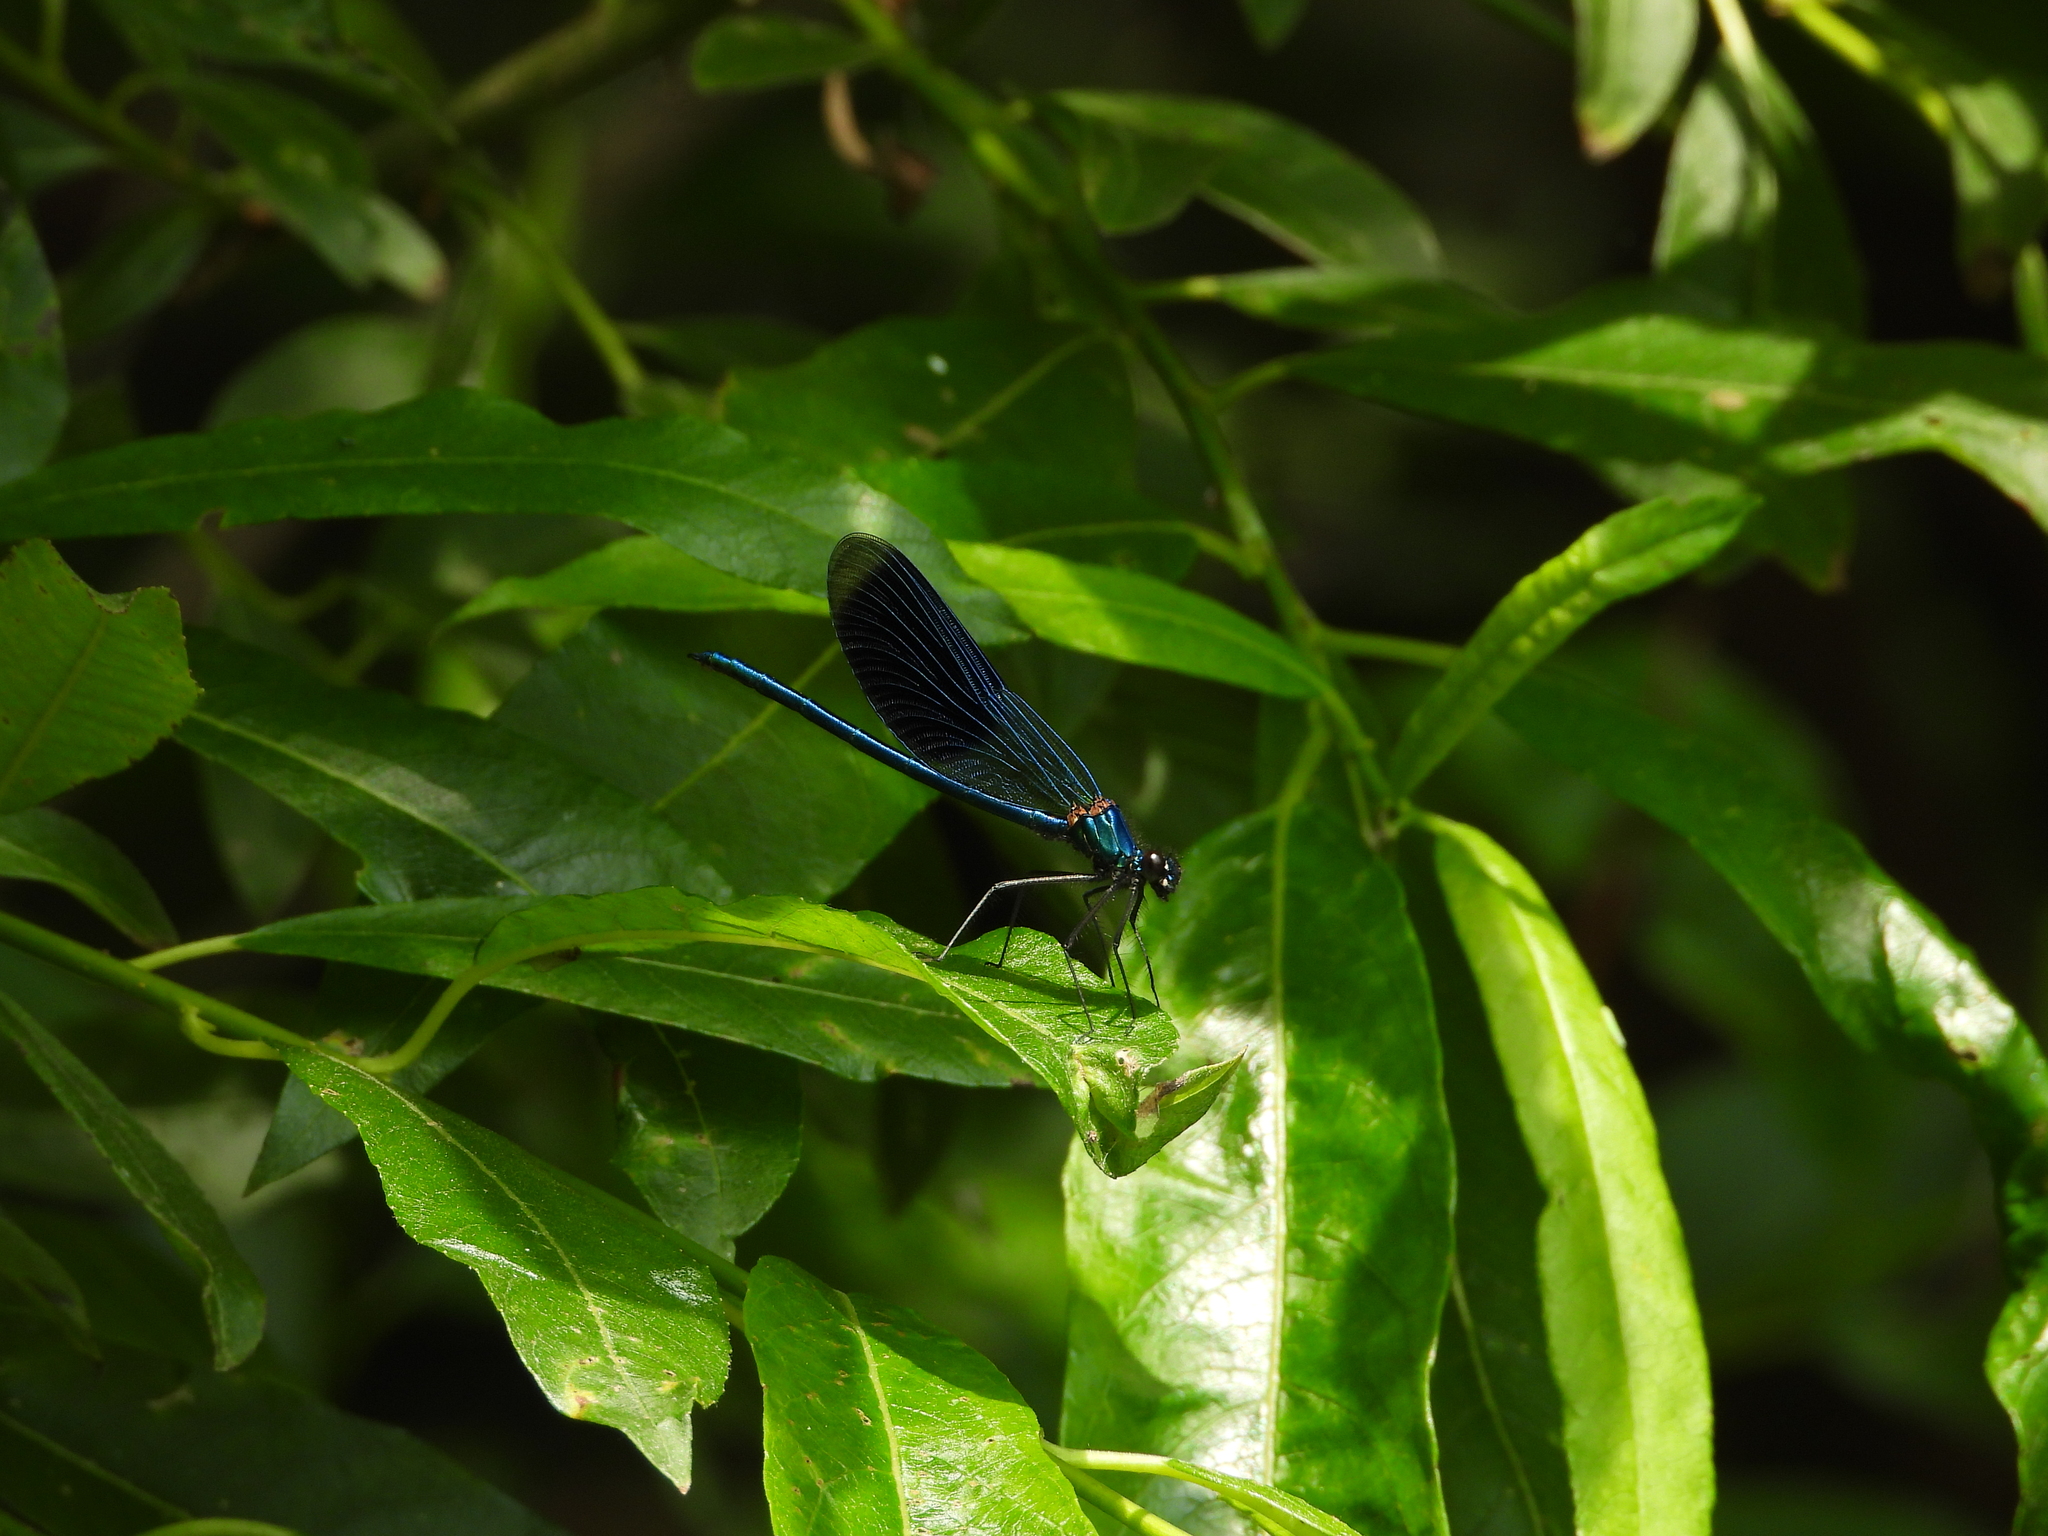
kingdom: Animalia
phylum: Arthropoda
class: Insecta
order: Odonata
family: Calopterygidae
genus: Calopteryx
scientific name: Calopteryx splendens
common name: Banded demoiselle
